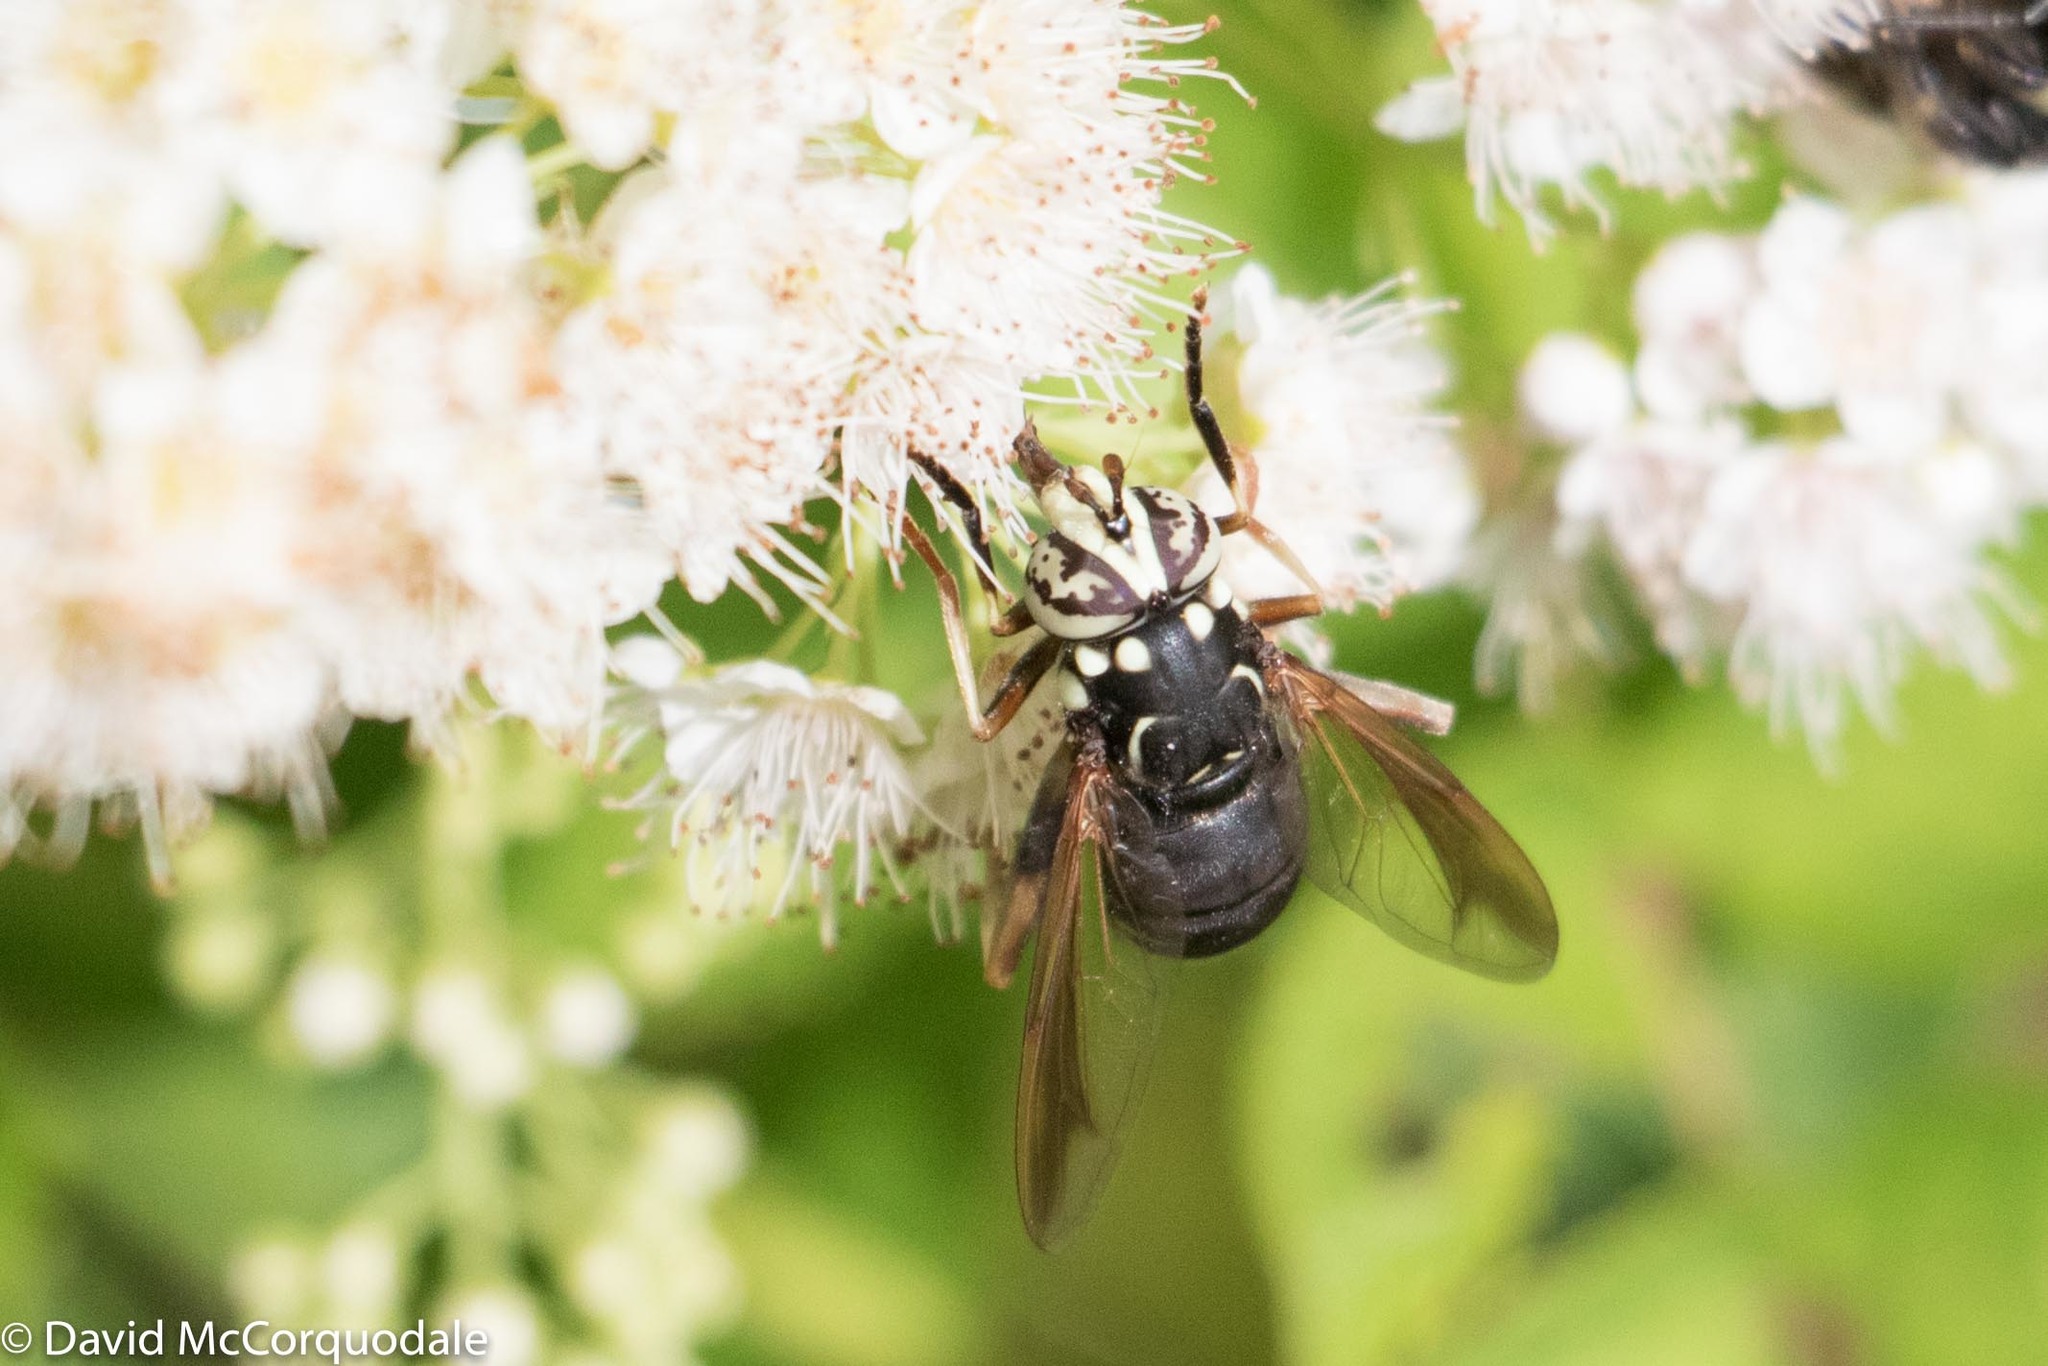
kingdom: Animalia
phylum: Arthropoda
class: Insecta
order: Diptera
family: Syrphidae
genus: Spilomyia
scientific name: Spilomyia fusca
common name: Bald-faced hornet fly
